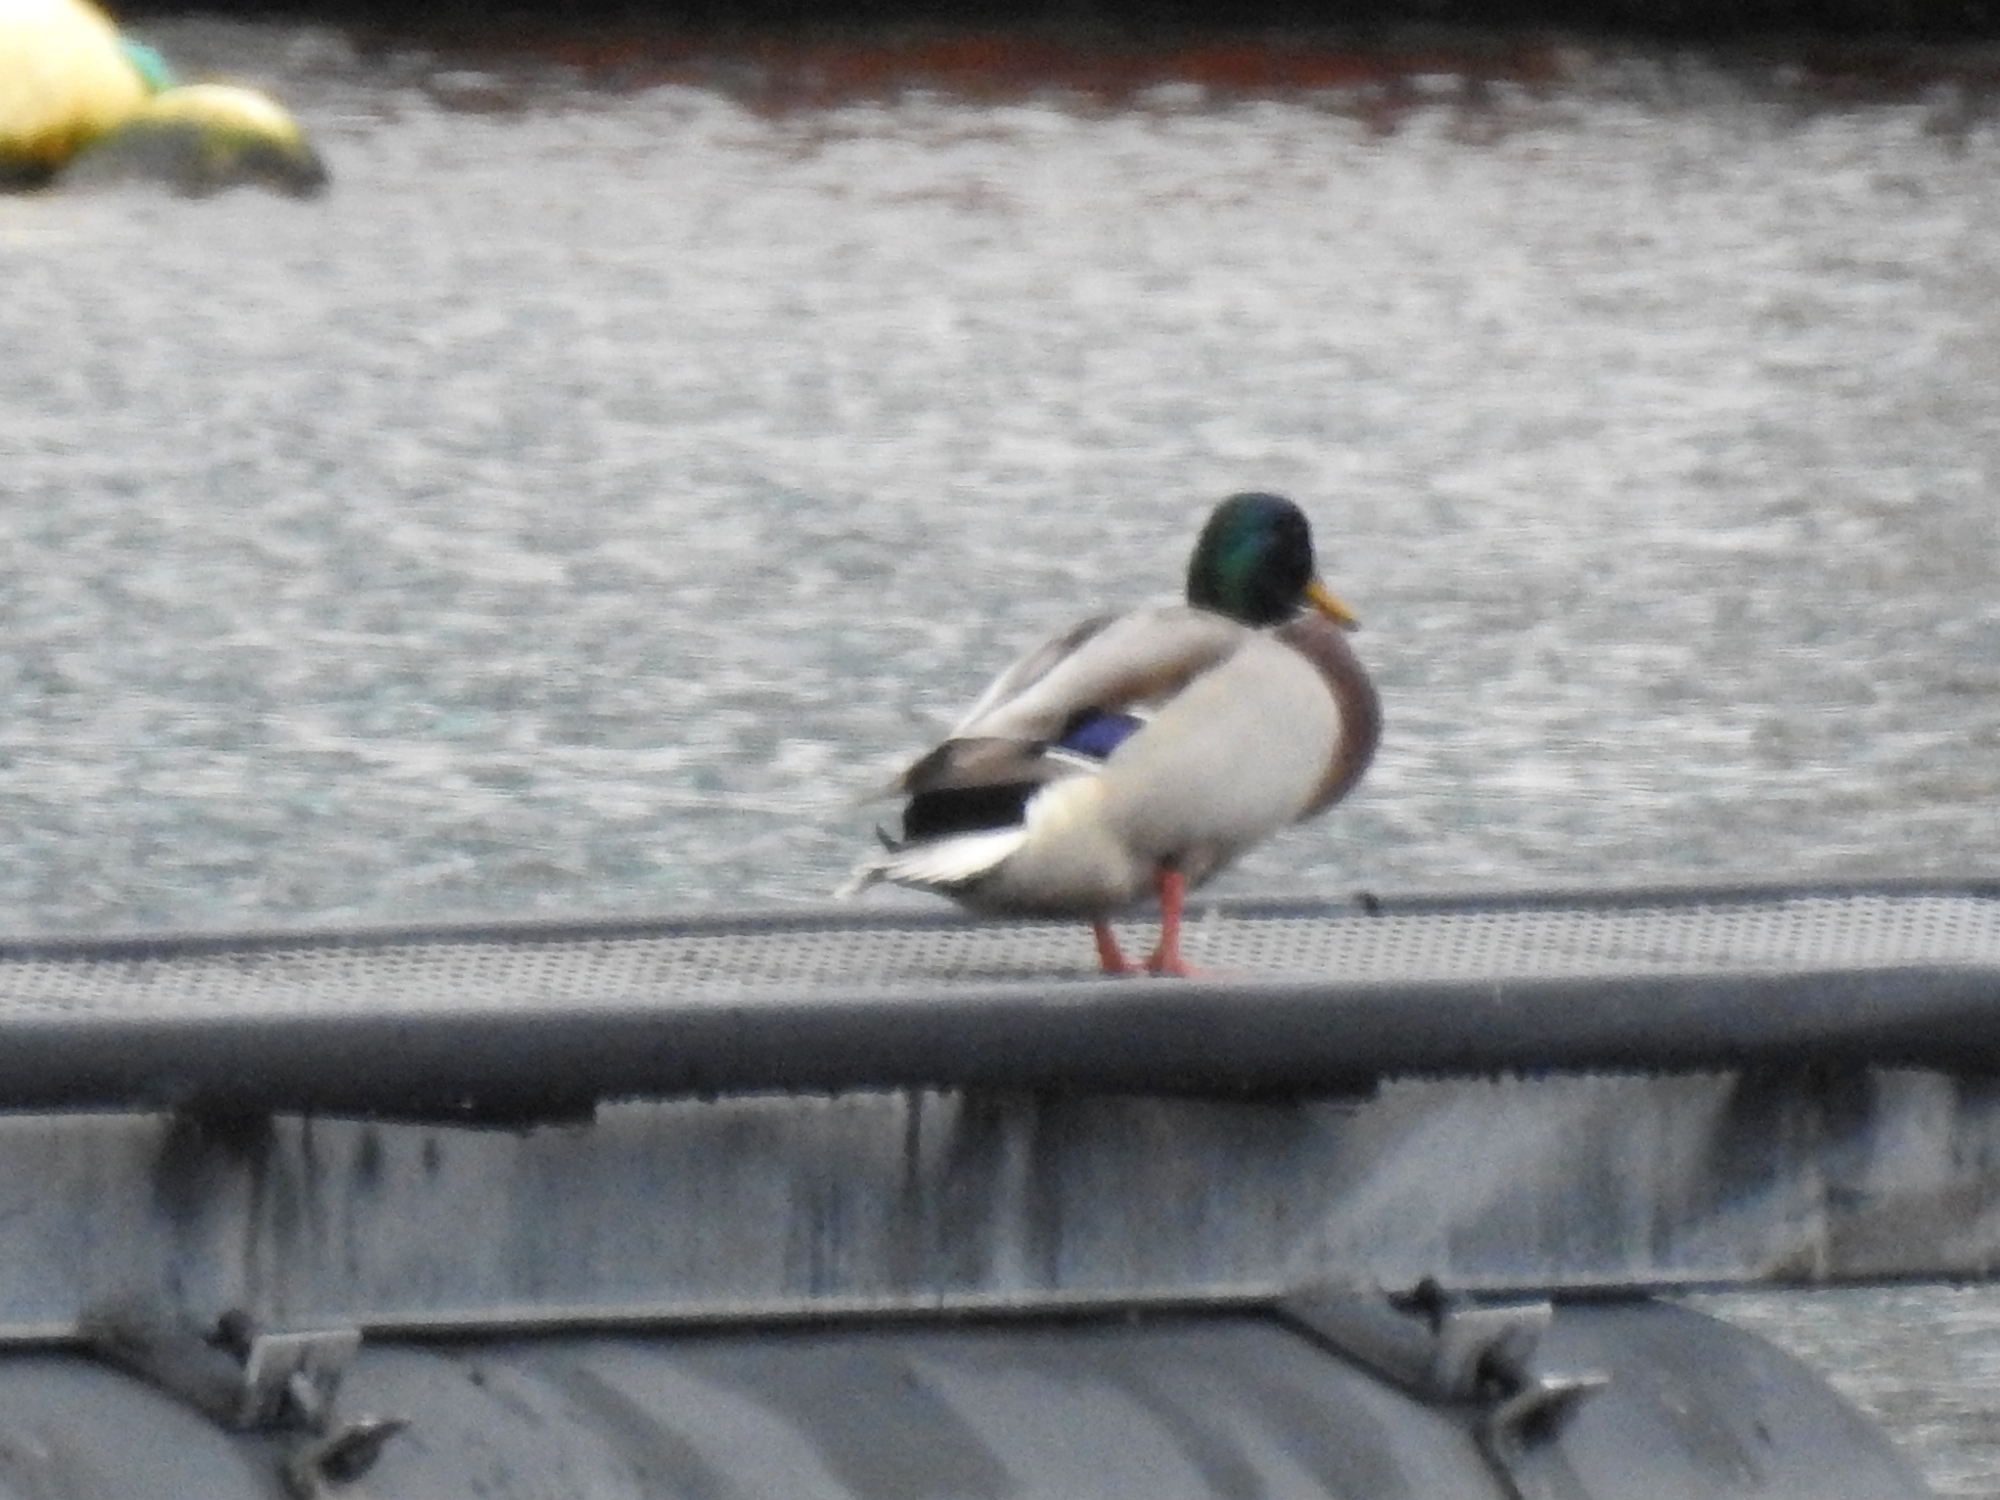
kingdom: Animalia
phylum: Chordata
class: Aves
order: Anseriformes
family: Anatidae
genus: Anas
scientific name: Anas platyrhynchos
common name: Mallard
